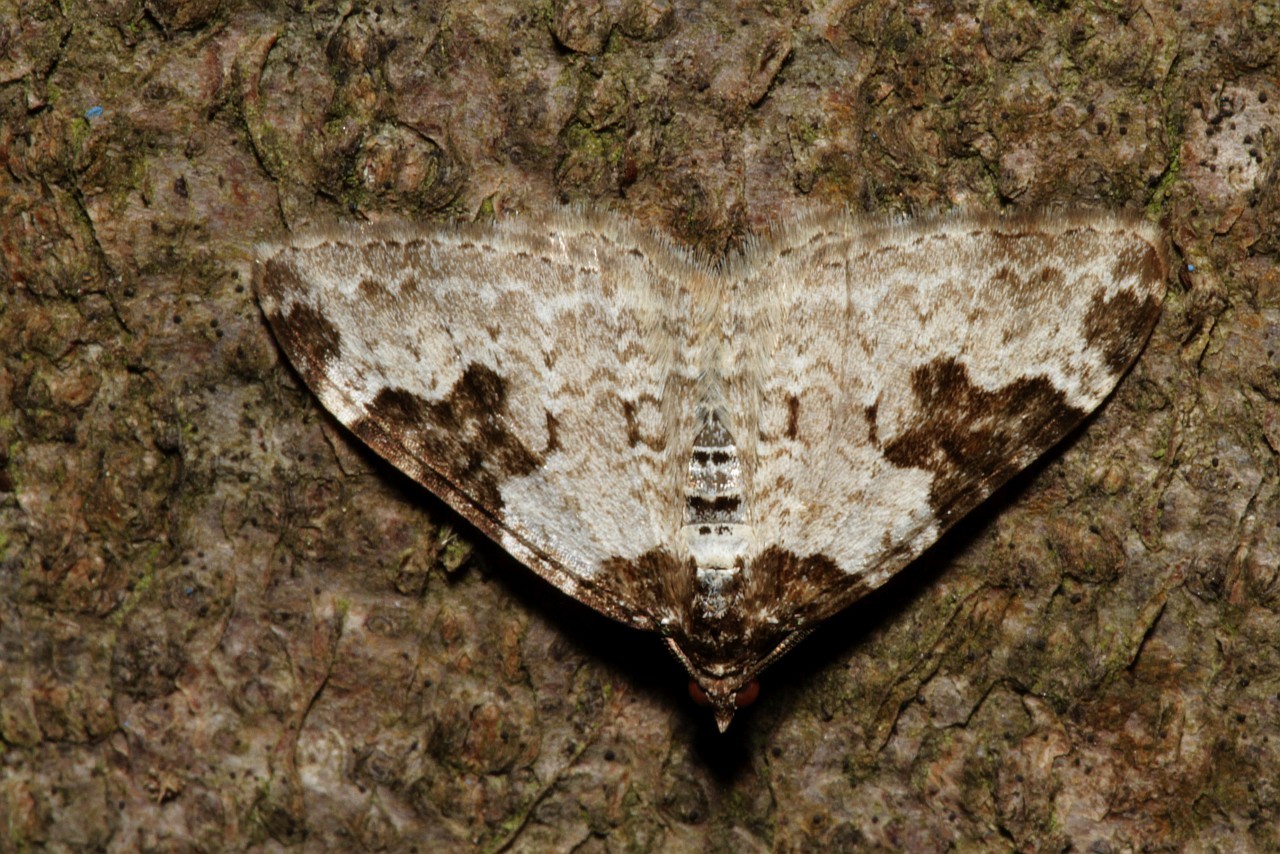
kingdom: Animalia
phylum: Arthropoda
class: Insecta
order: Lepidoptera
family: Geometridae
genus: Xanthorhoe
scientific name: Xanthorhoe fluctuata
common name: Garden carpet
